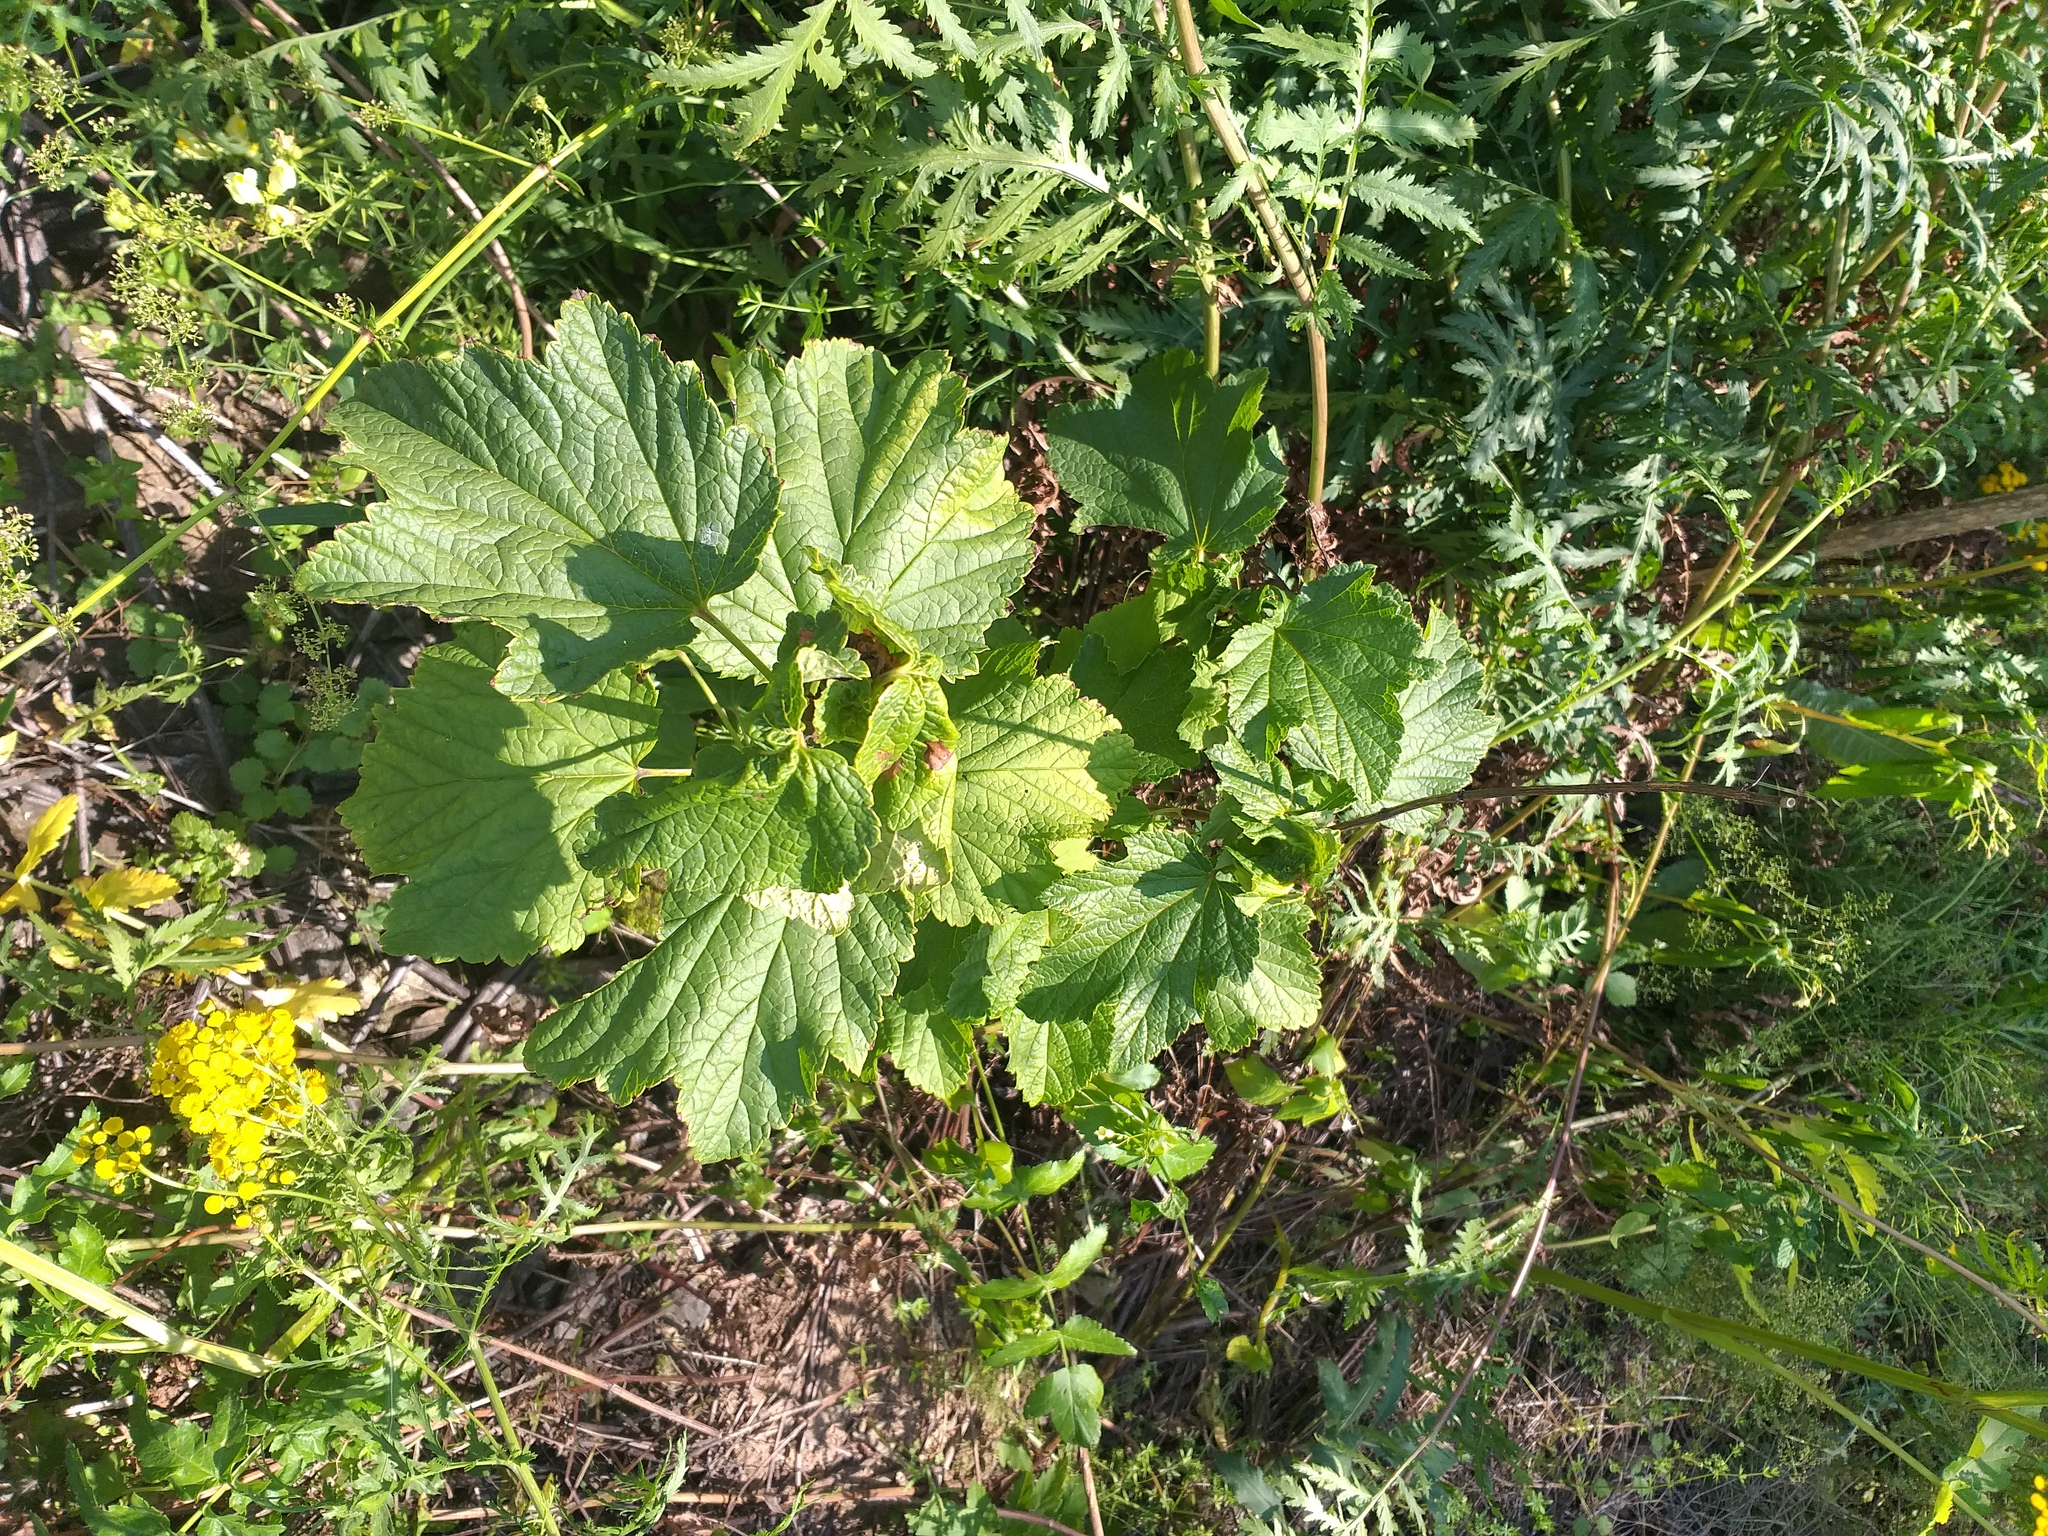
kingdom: Plantae
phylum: Tracheophyta
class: Magnoliopsida
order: Saxifragales
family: Grossulariaceae
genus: Ribes
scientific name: Ribes spicatum
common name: Downy currant
